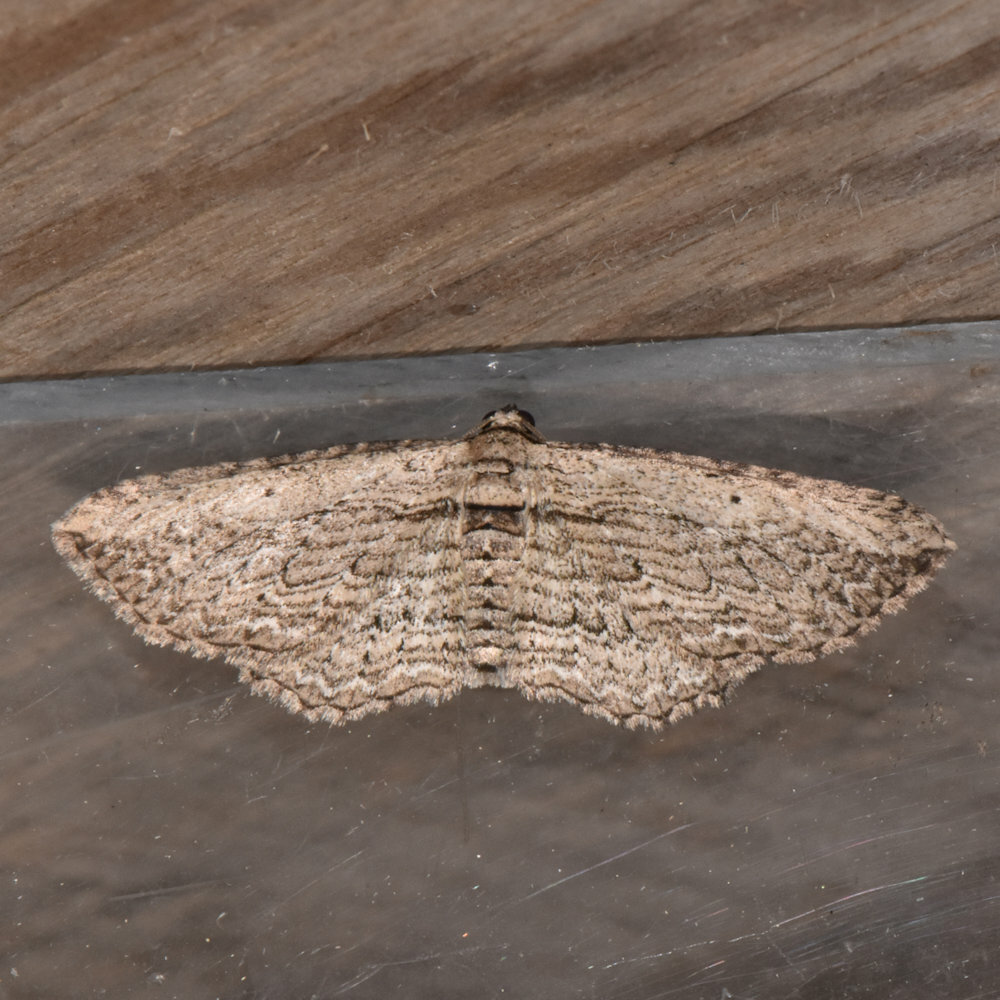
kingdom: Animalia
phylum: Arthropoda
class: Insecta
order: Lepidoptera
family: Geometridae
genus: Horisme
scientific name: Horisme intestinata
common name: Brown bark carpet
